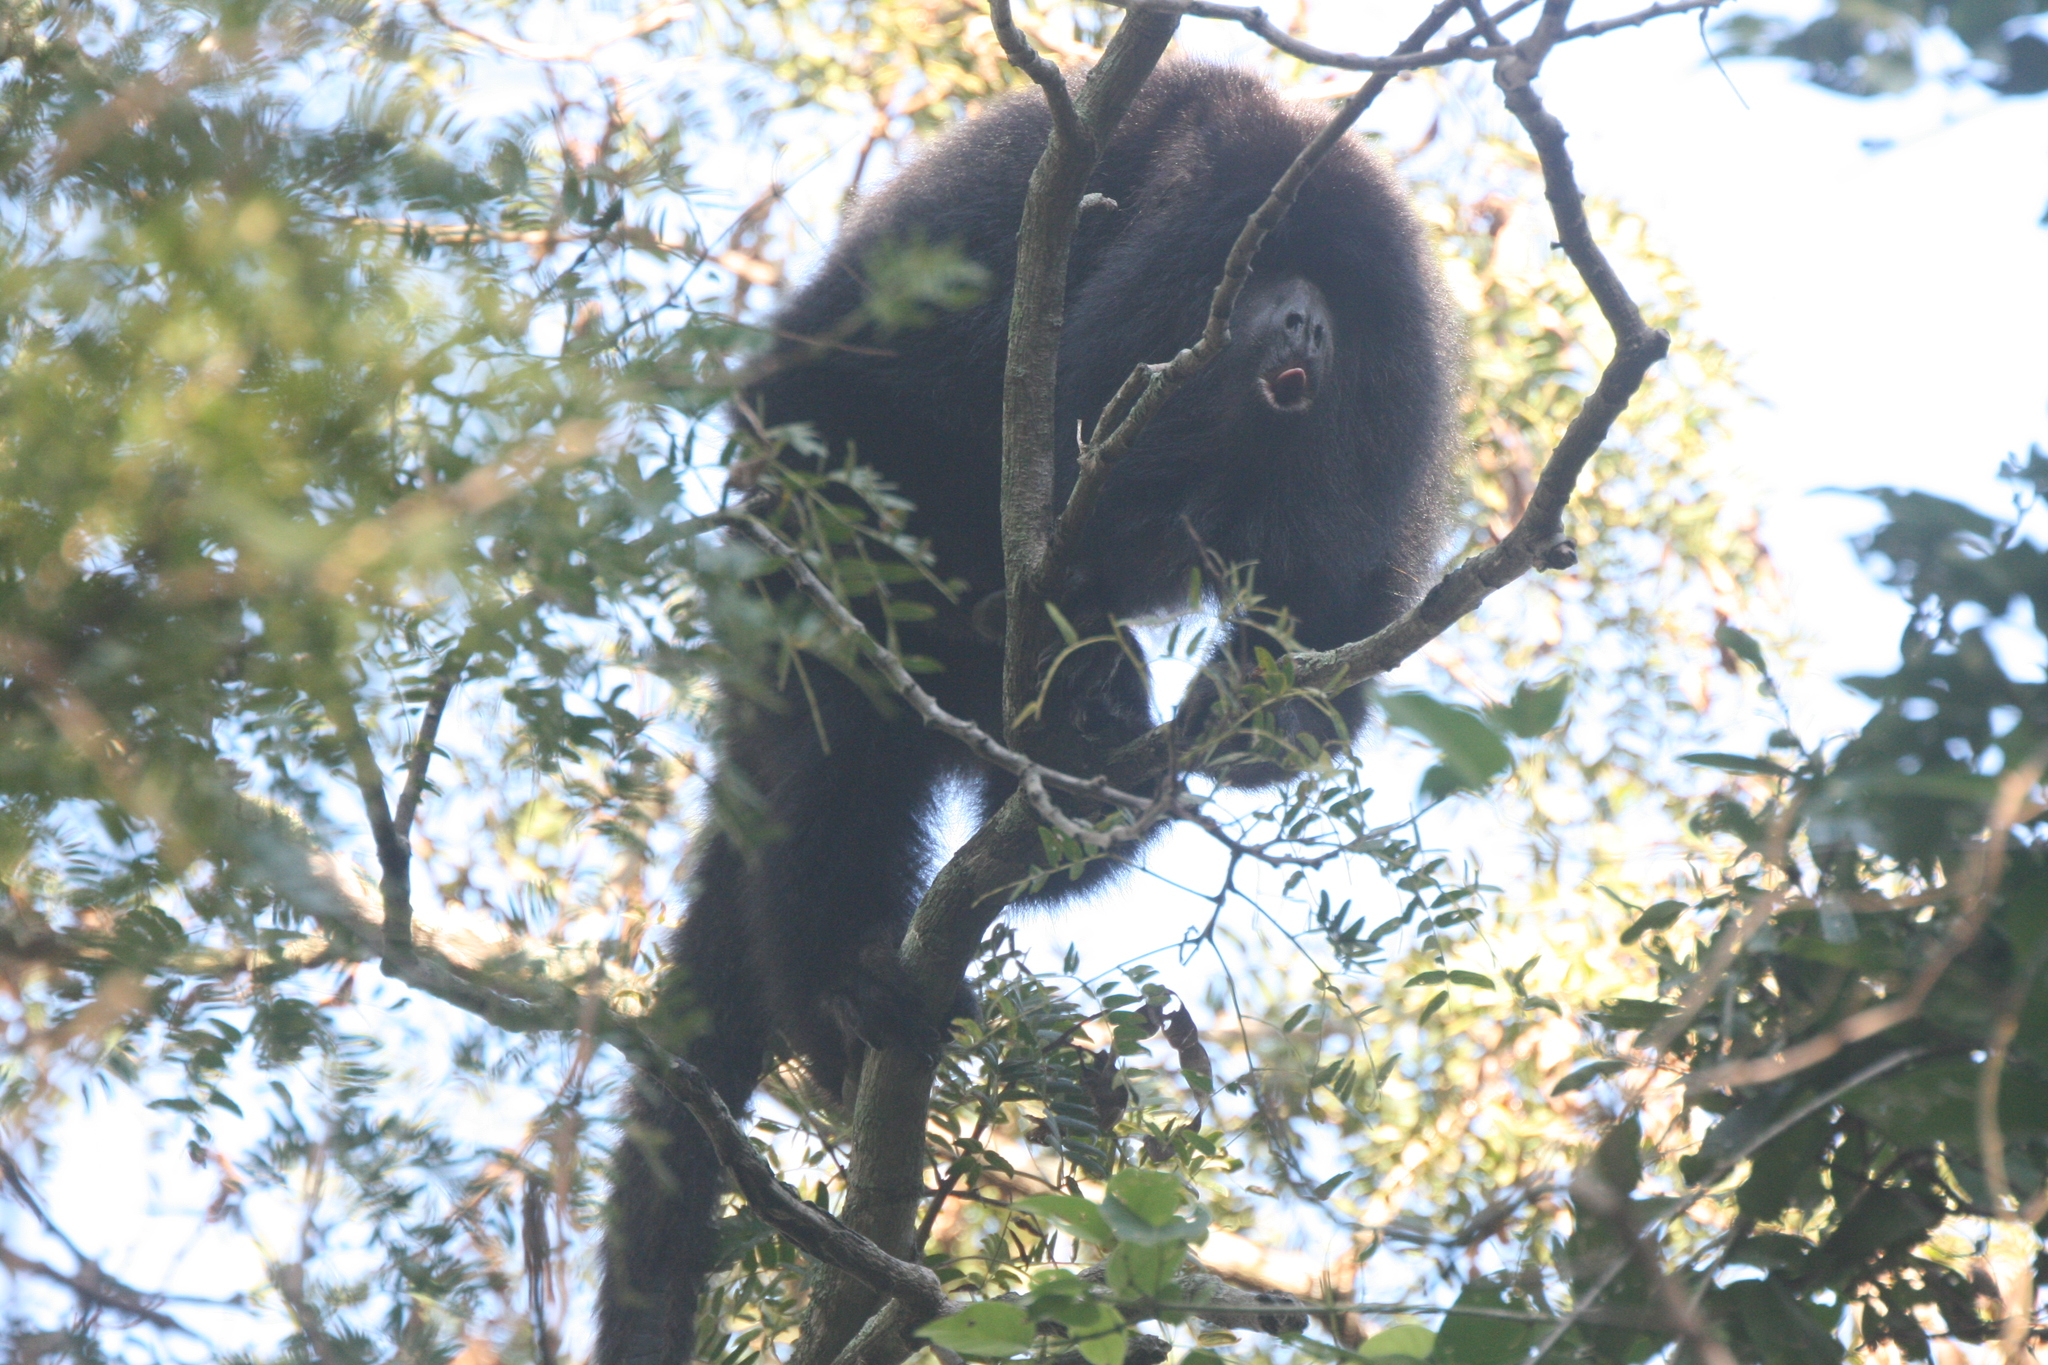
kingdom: Animalia
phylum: Chordata
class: Mammalia
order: Primates
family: Atelidae
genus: Alouatta
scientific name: Alouatta caraya
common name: Black howler
